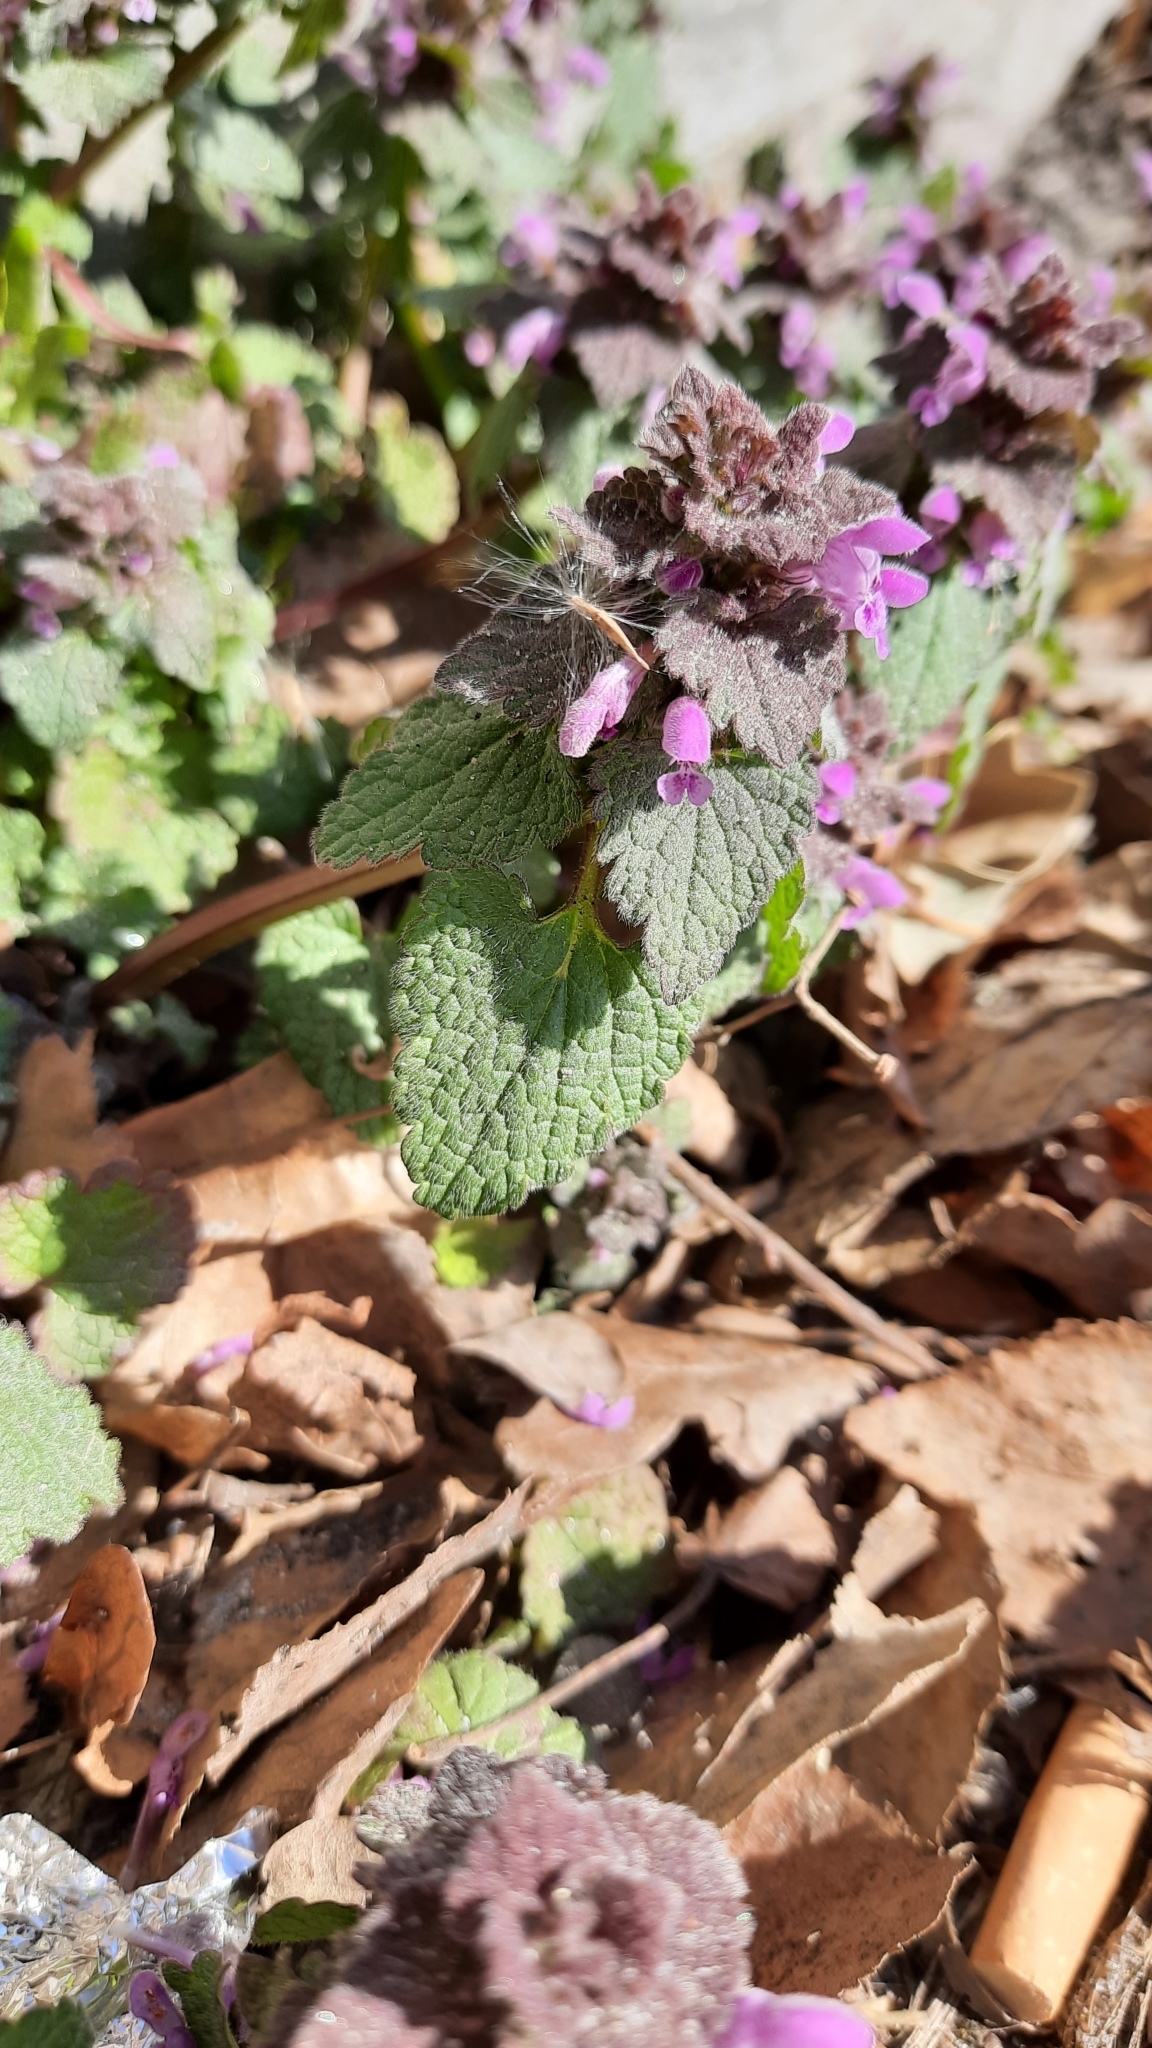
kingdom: Plantae
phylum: Tracheophyta
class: Magnoliopsida
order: Lamiales
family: Lamiaceae
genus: Lamium
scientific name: Lamium purpureum
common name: Red dead-nettle
